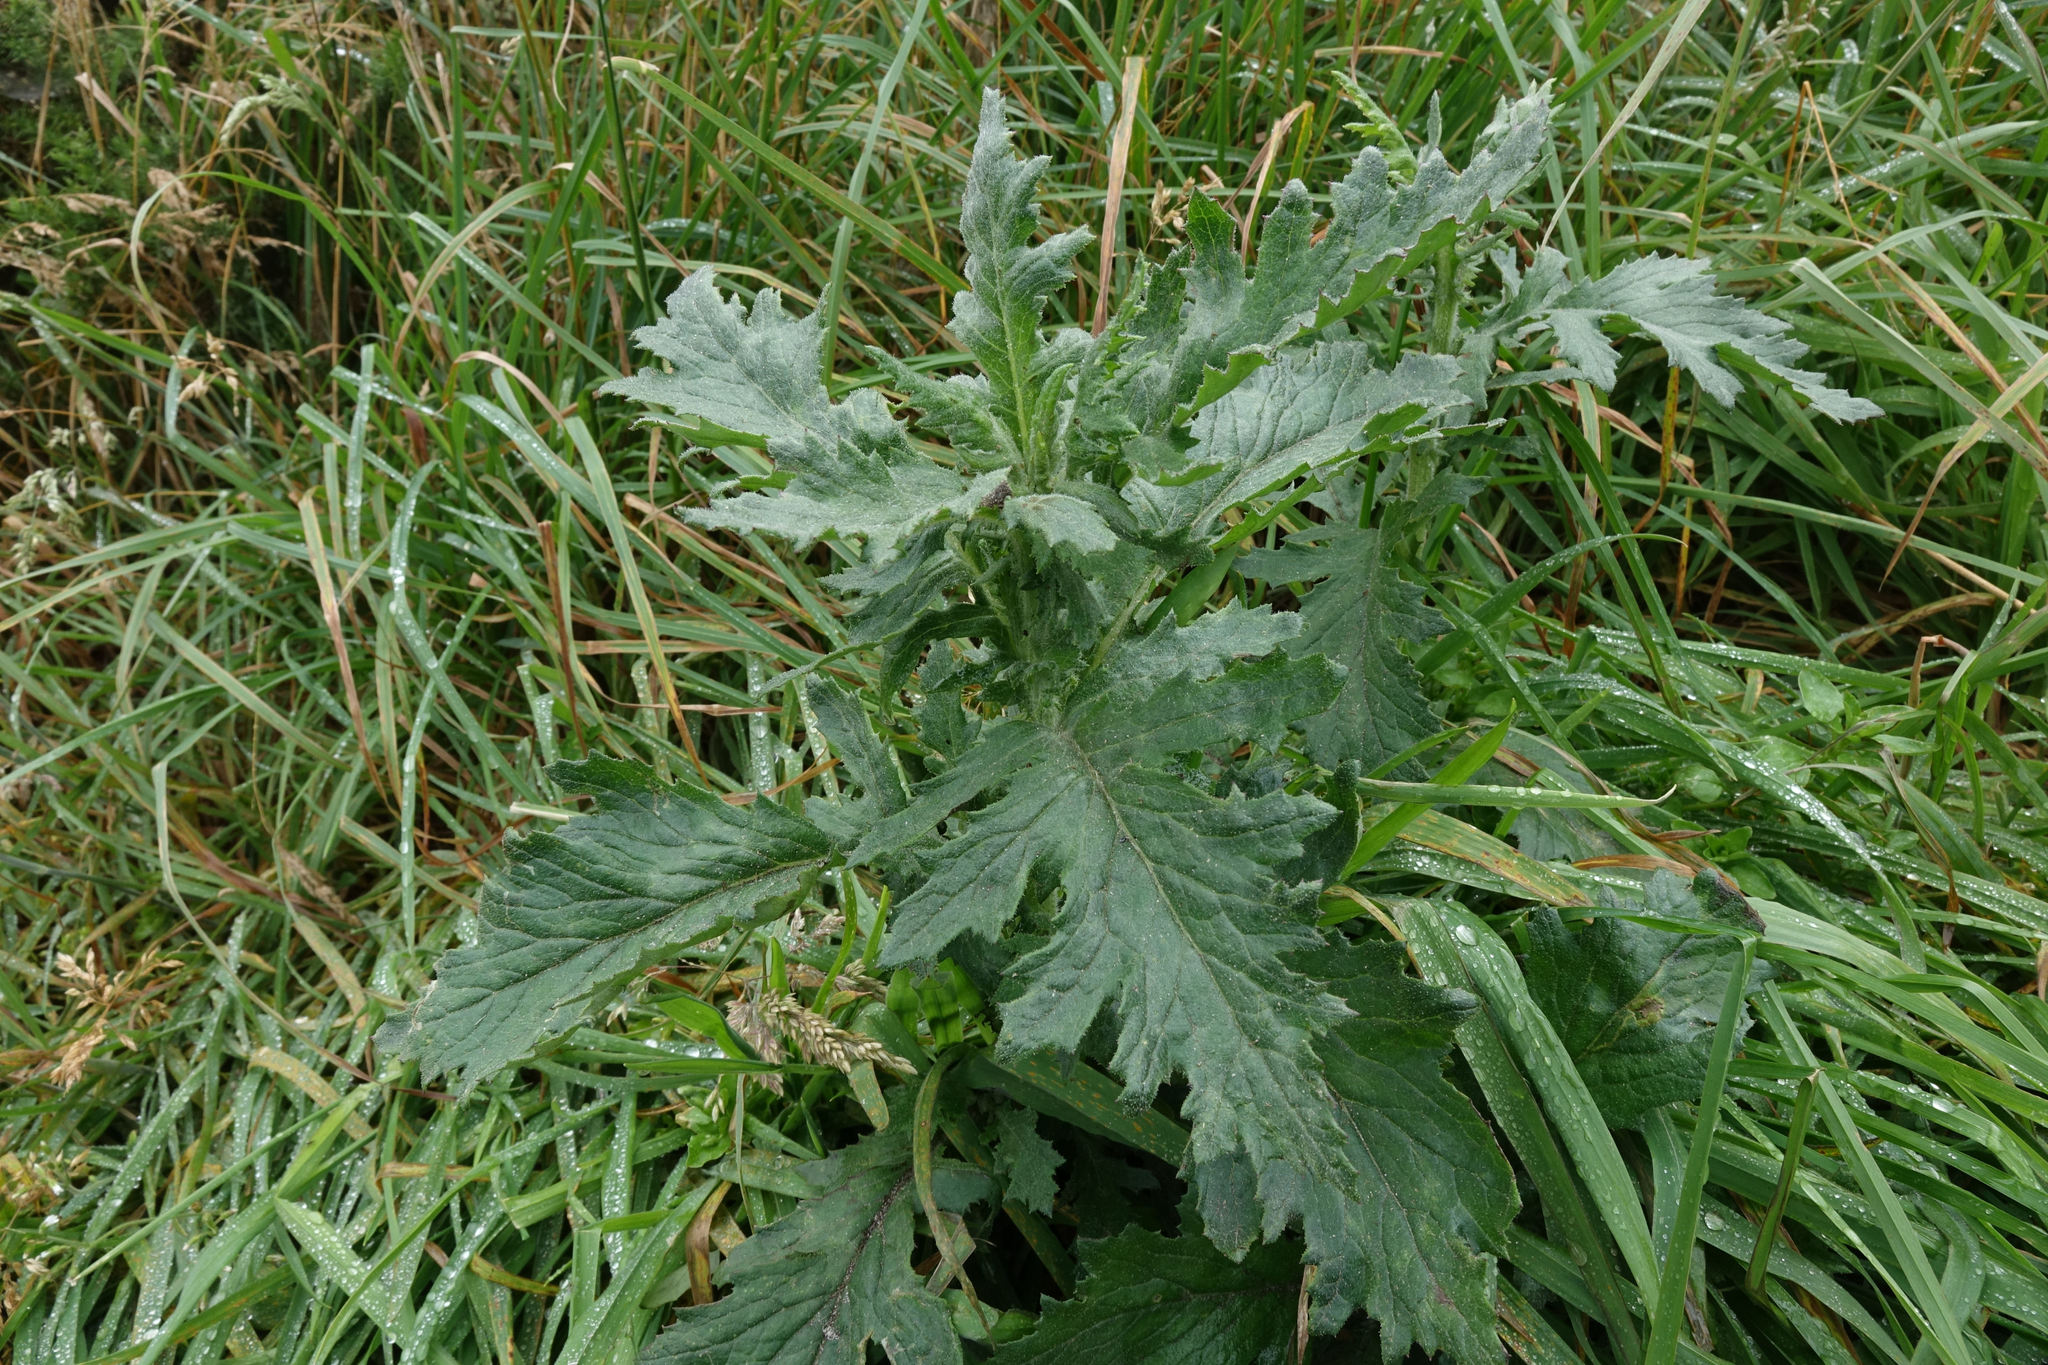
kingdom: Plantae
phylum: Tracheophyta
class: Magnoliopsida
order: Asterales
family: Asteraceae
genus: Senecio
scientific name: Senecio biserratus
